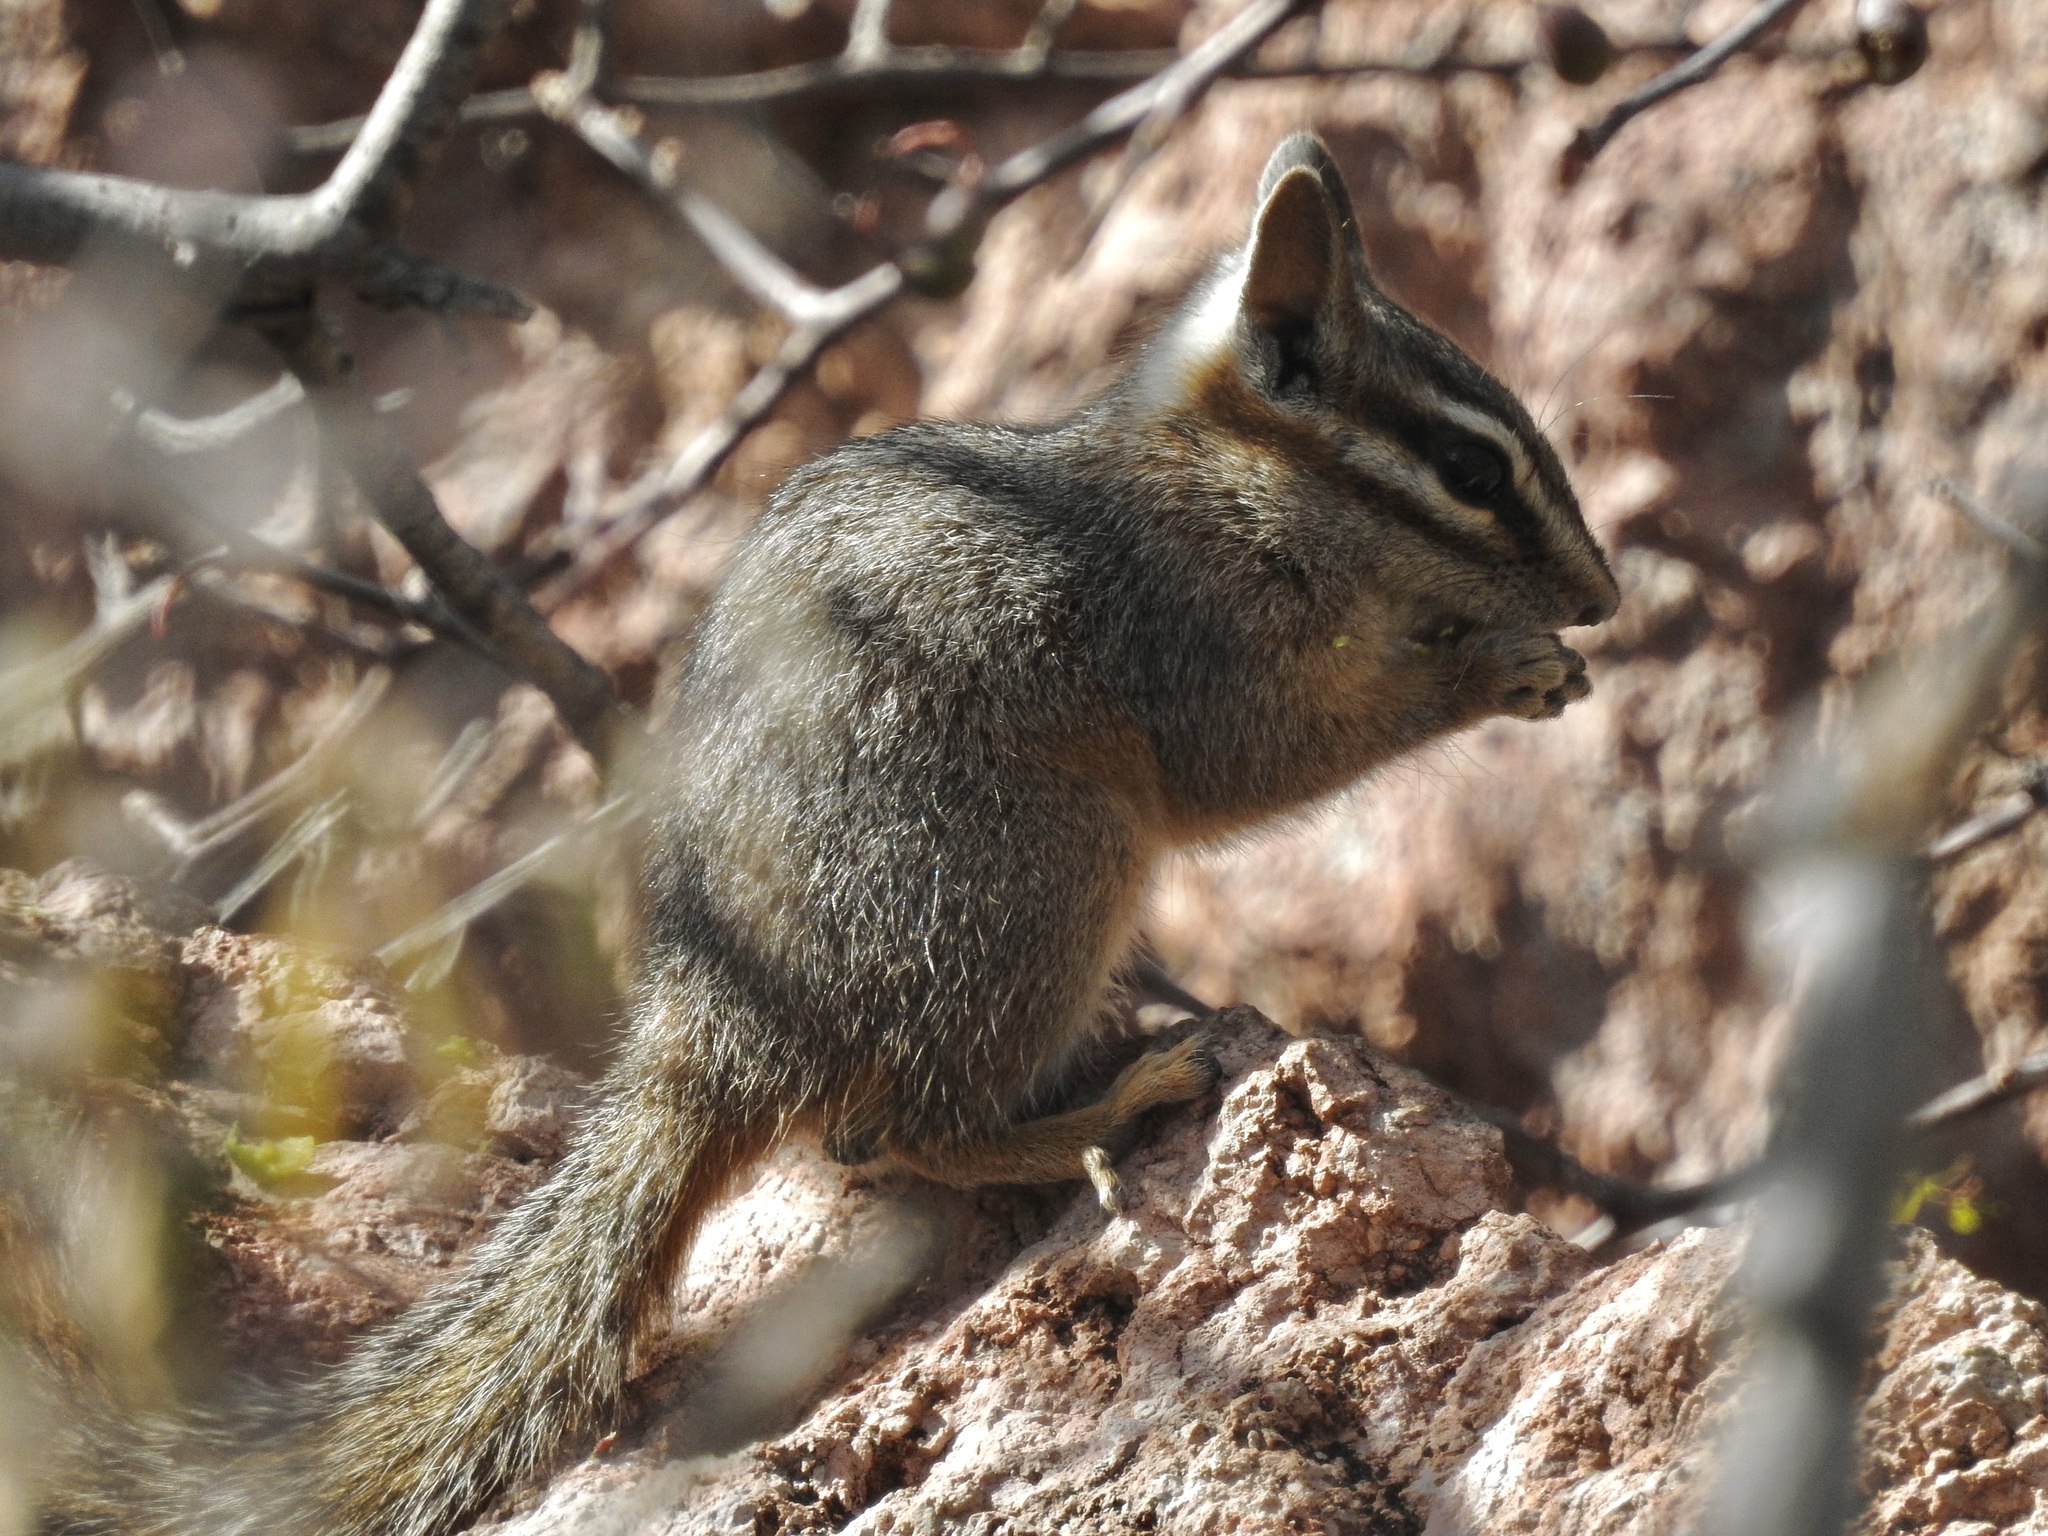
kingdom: Animalia
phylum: Chordata
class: Mammalia
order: Rodentia
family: Sciuridae
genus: Tamias
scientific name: Tamias dorsalis
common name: Cliff chipmunk
